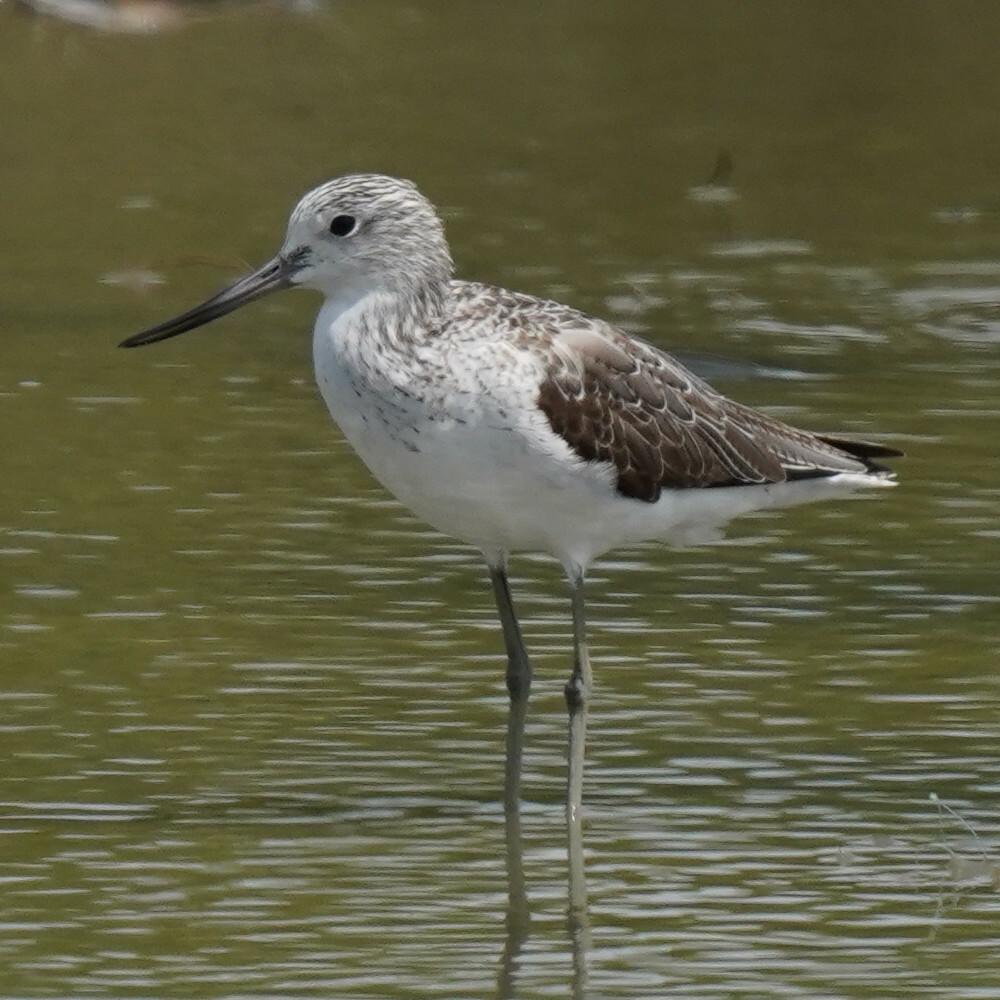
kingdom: Animalia
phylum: Chordata
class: Aves
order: Charadriiformes
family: Scolopacidae
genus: Tringa
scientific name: Tringa nebularia
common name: Common greenshank
